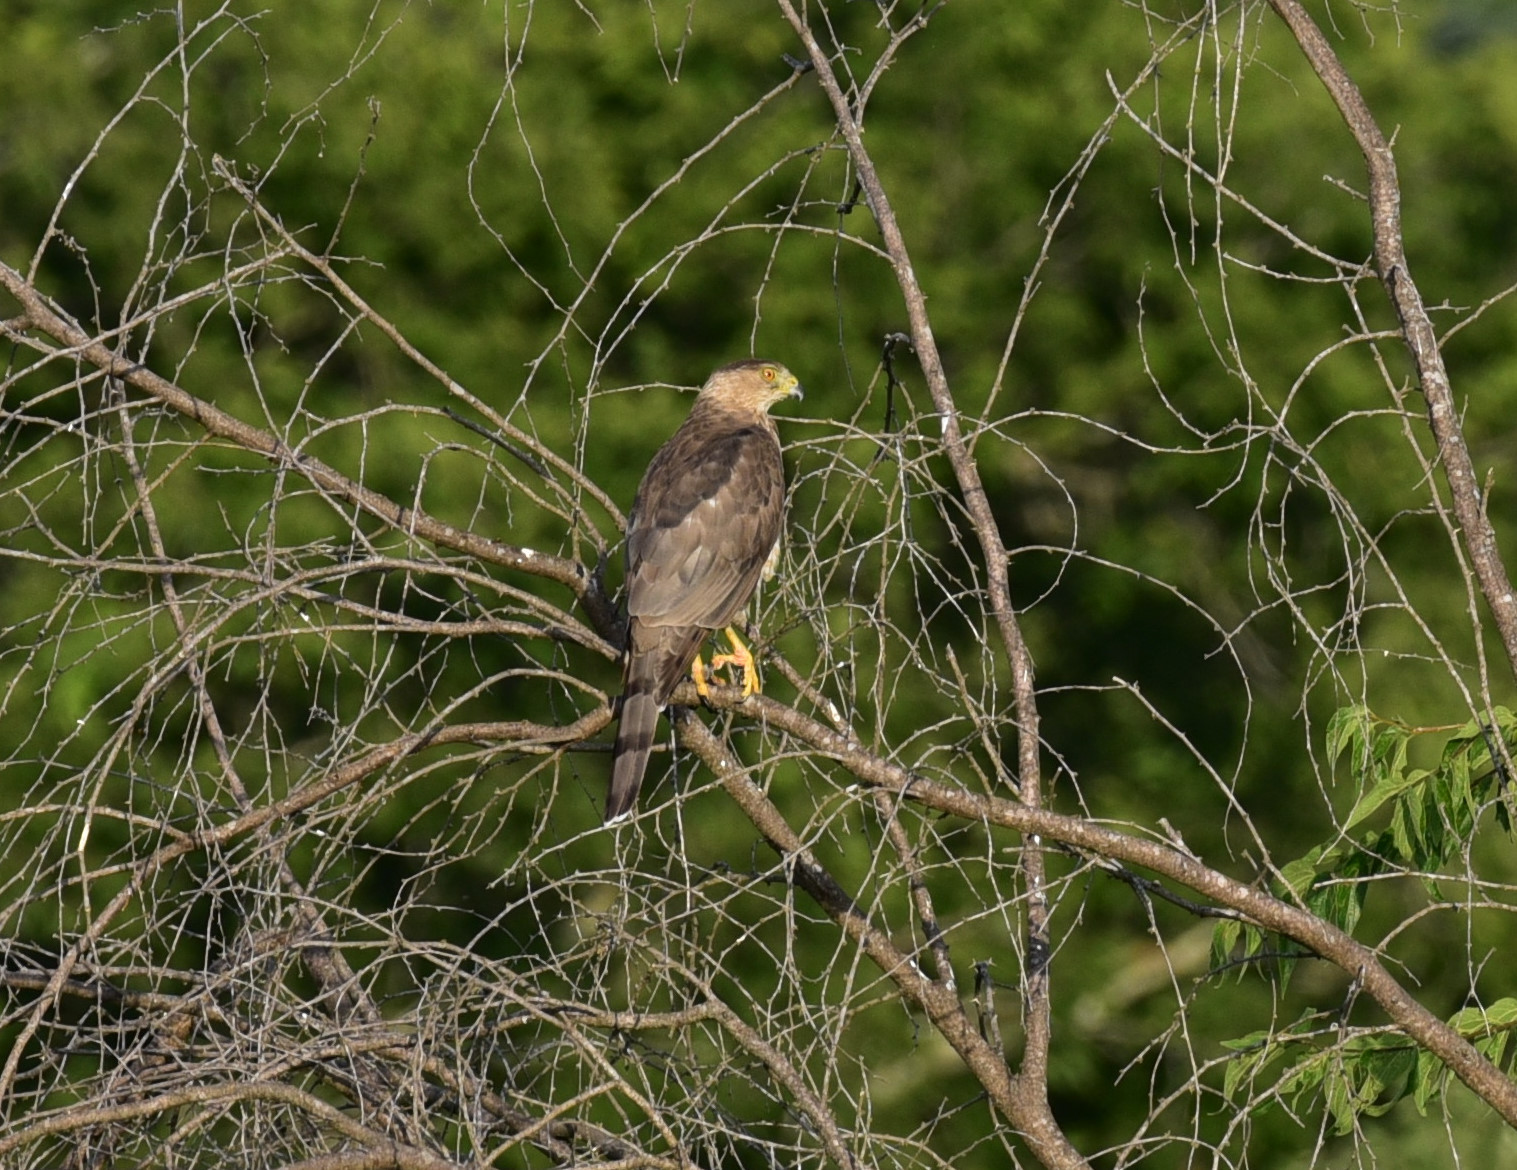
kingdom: Animalia
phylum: Chordata
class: Aves
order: Accipitriformes
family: Accipitridae
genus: Accipiter
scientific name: Accipiter cooperii
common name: Cooper's hawk
